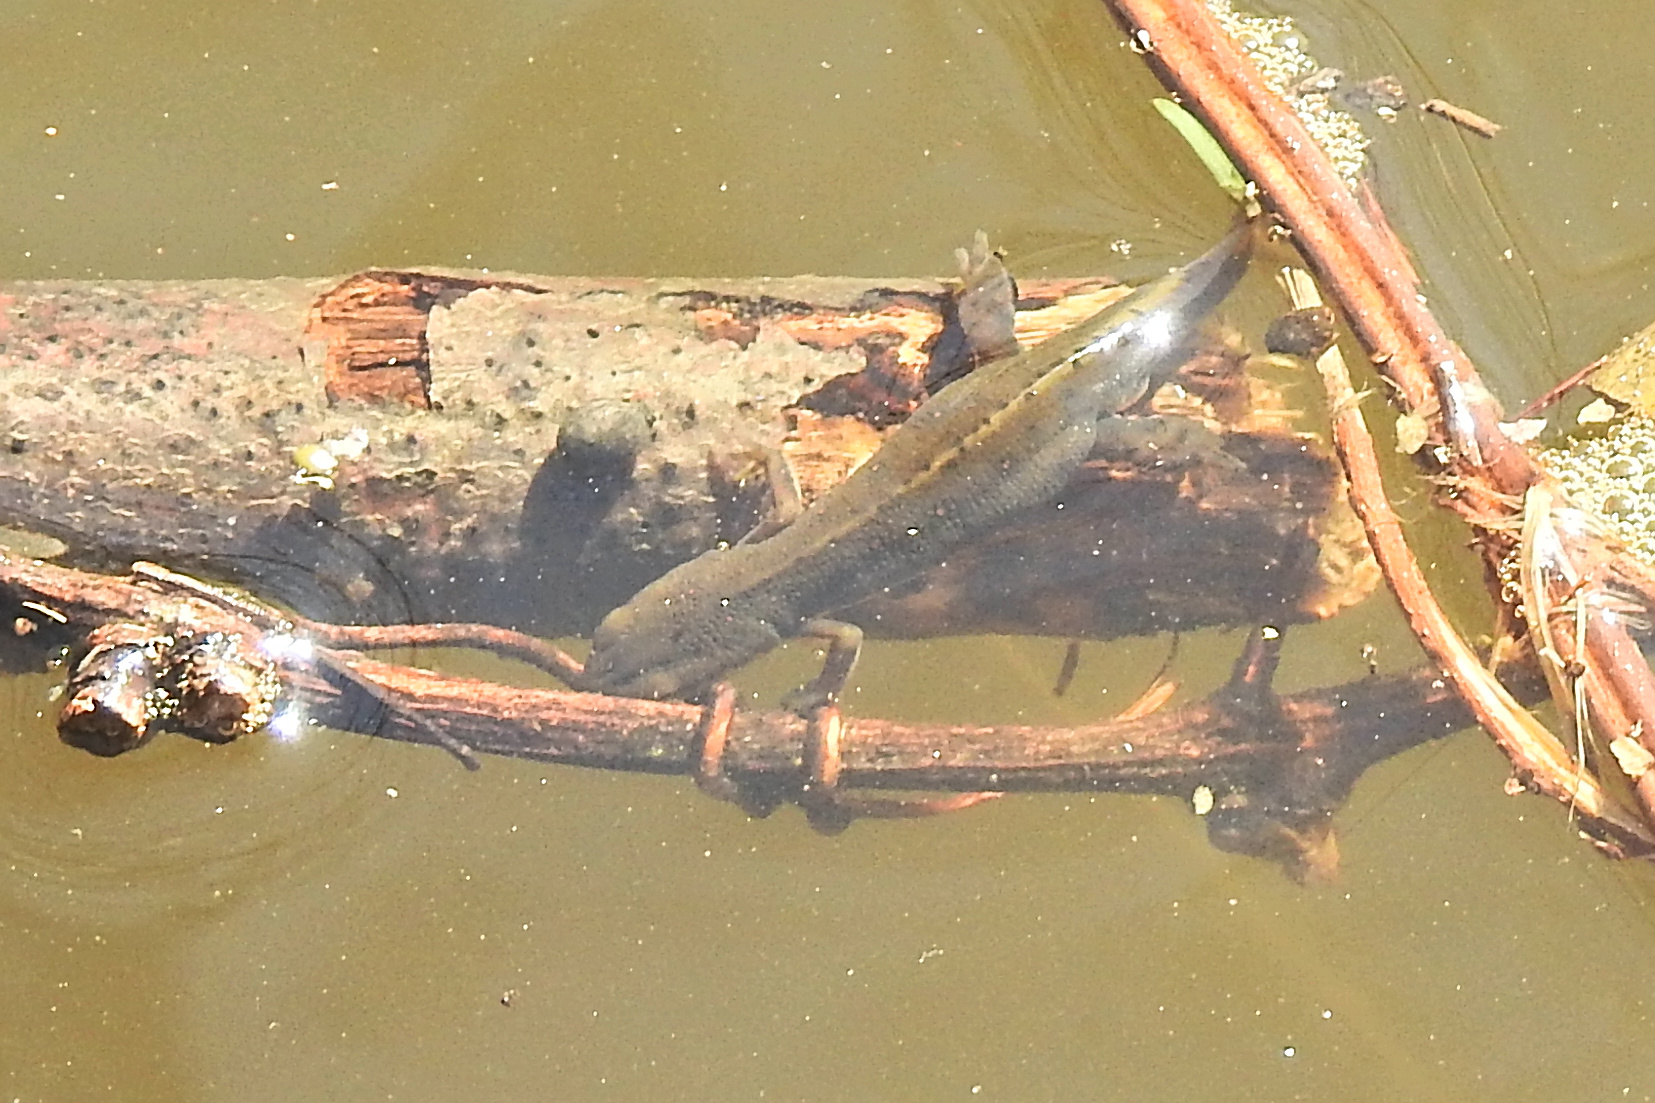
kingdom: Animalia
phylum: Chordata
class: Amphibia
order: Caudata
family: Salamandridae
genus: Notophthalmus
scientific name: Notophthalmus viridescens
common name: Eastern newt
